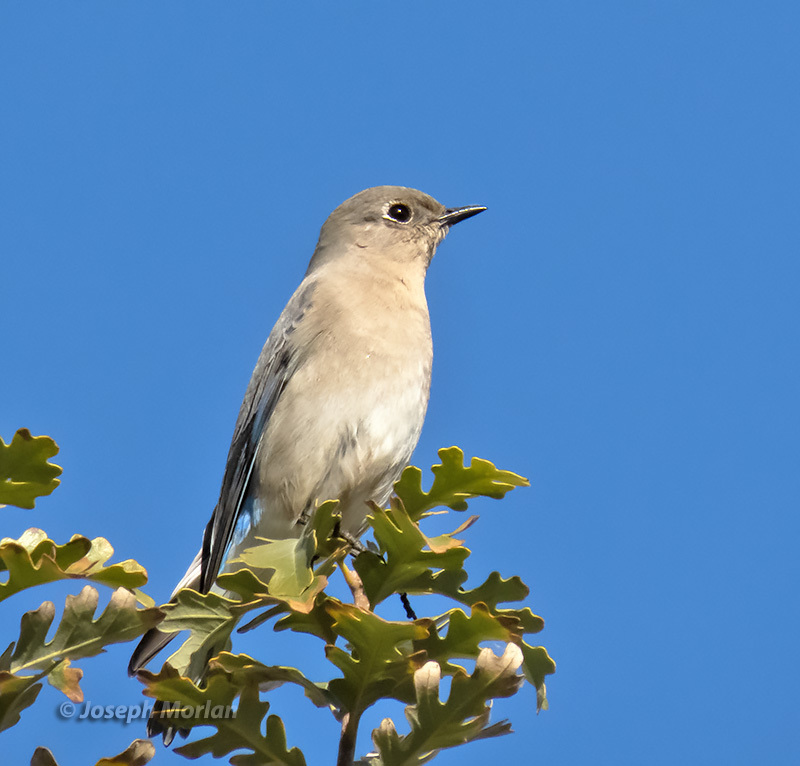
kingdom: Animalia
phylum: Chordata
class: Aves
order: Passeriformes
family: Turdidae
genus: Sialia
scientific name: Sialia currucoides
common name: Mountain bluebird
